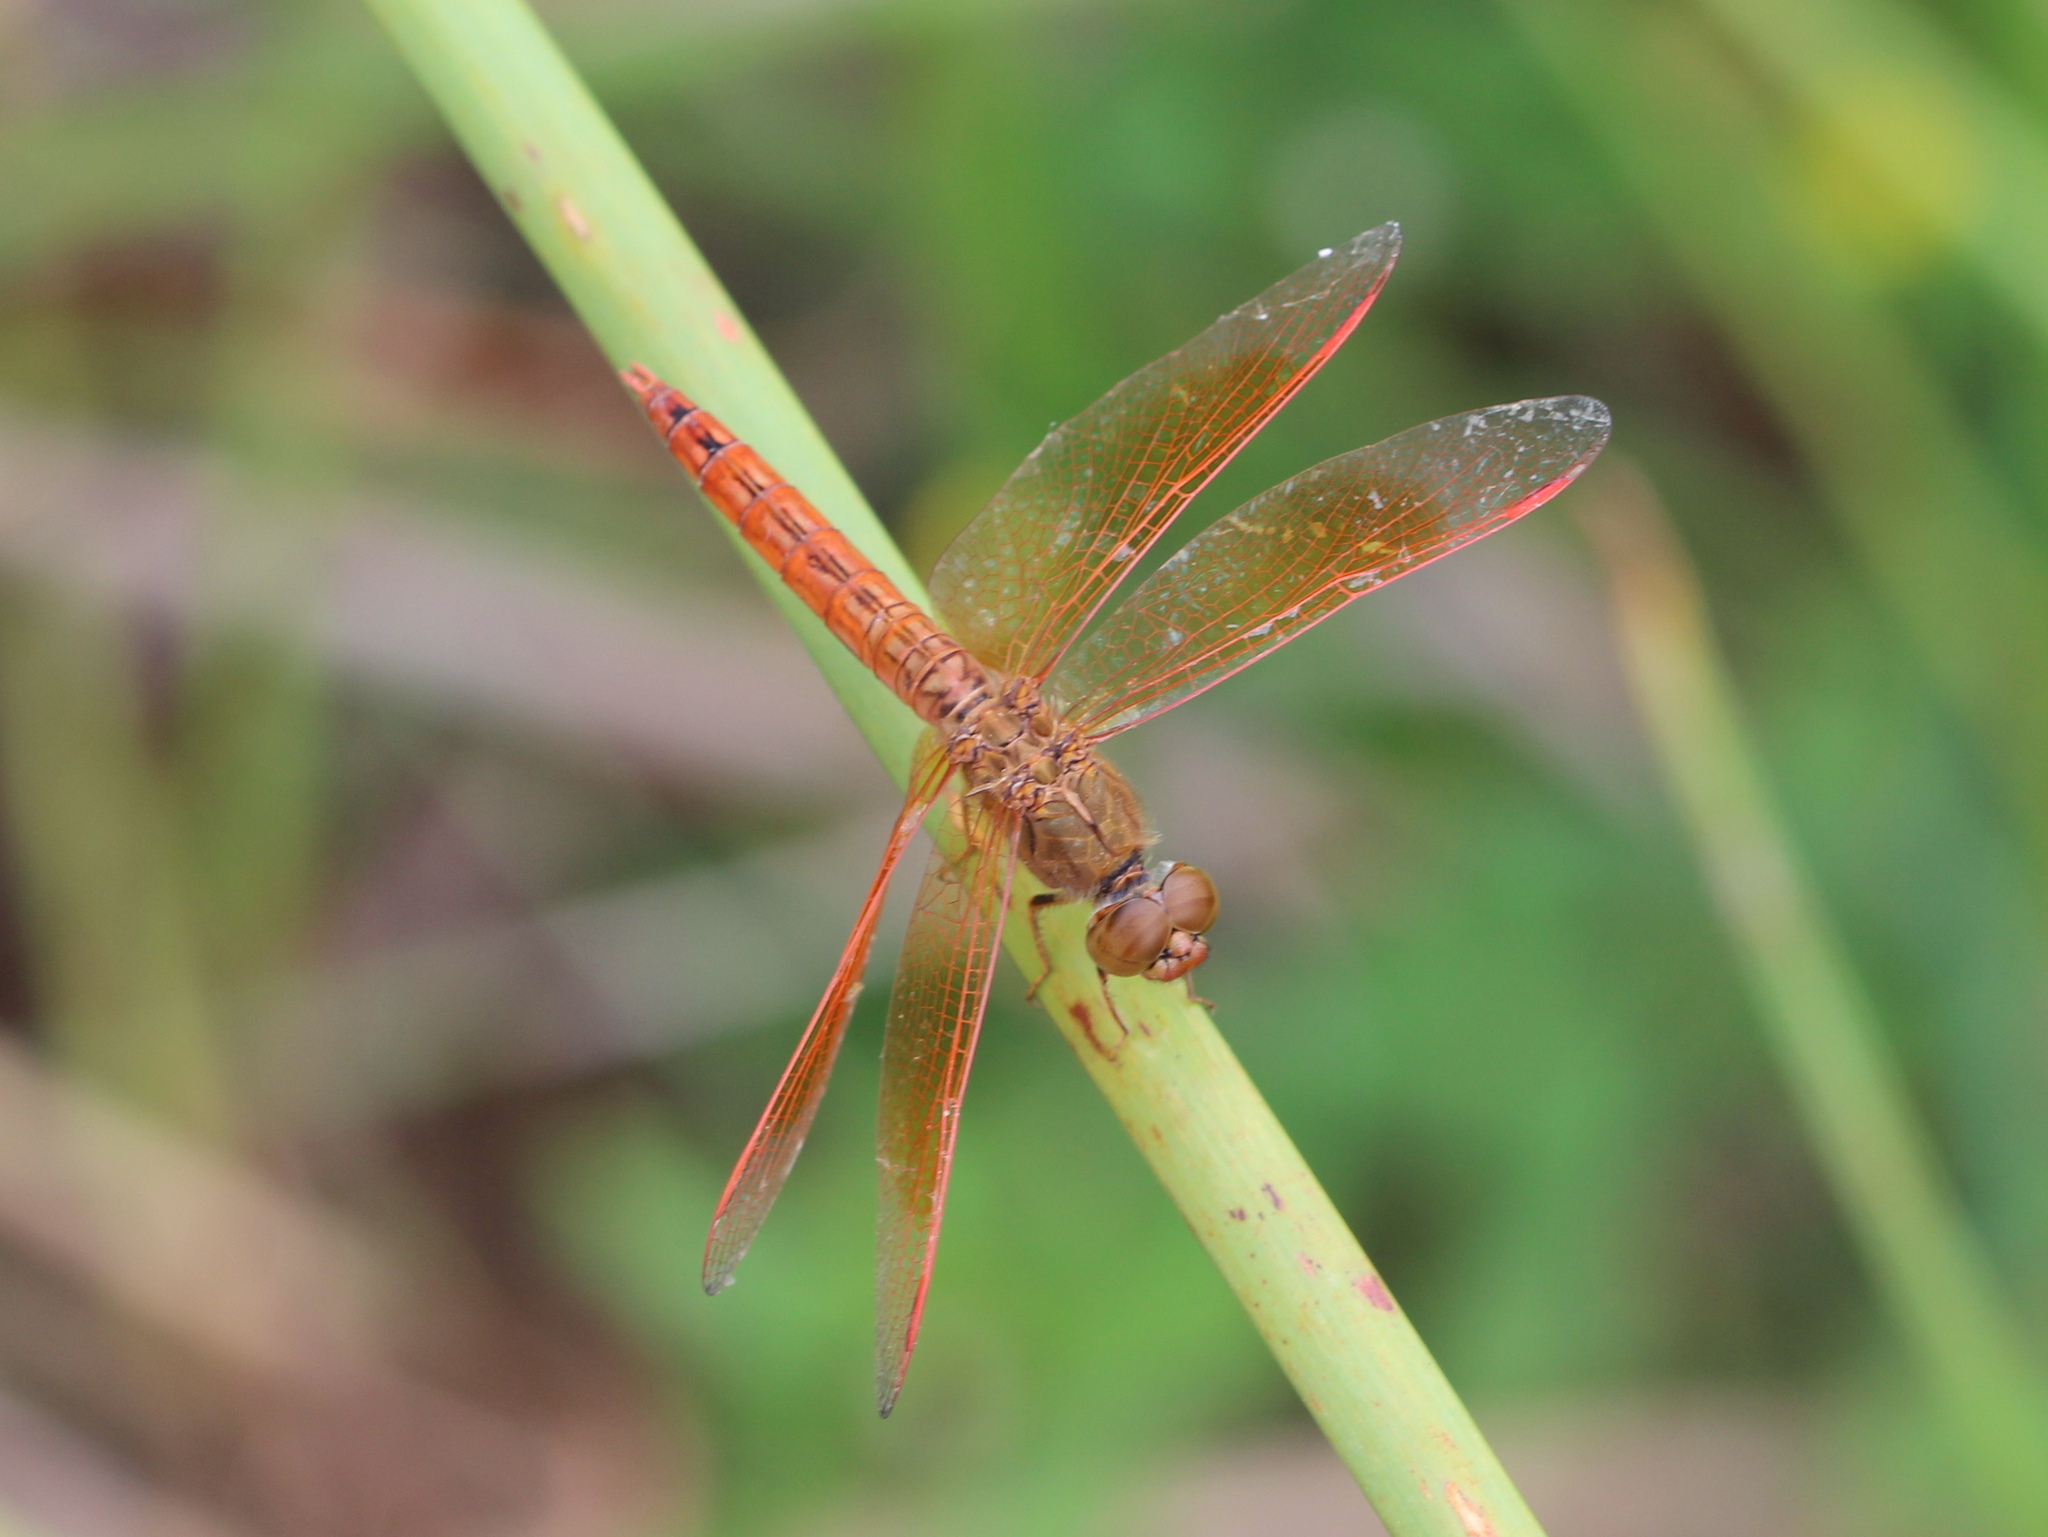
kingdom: Animalia
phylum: Arthropoda
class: Insecta
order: Odonata
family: Libellulidae
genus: Brachythemis
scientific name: Brachythemis contaminata
